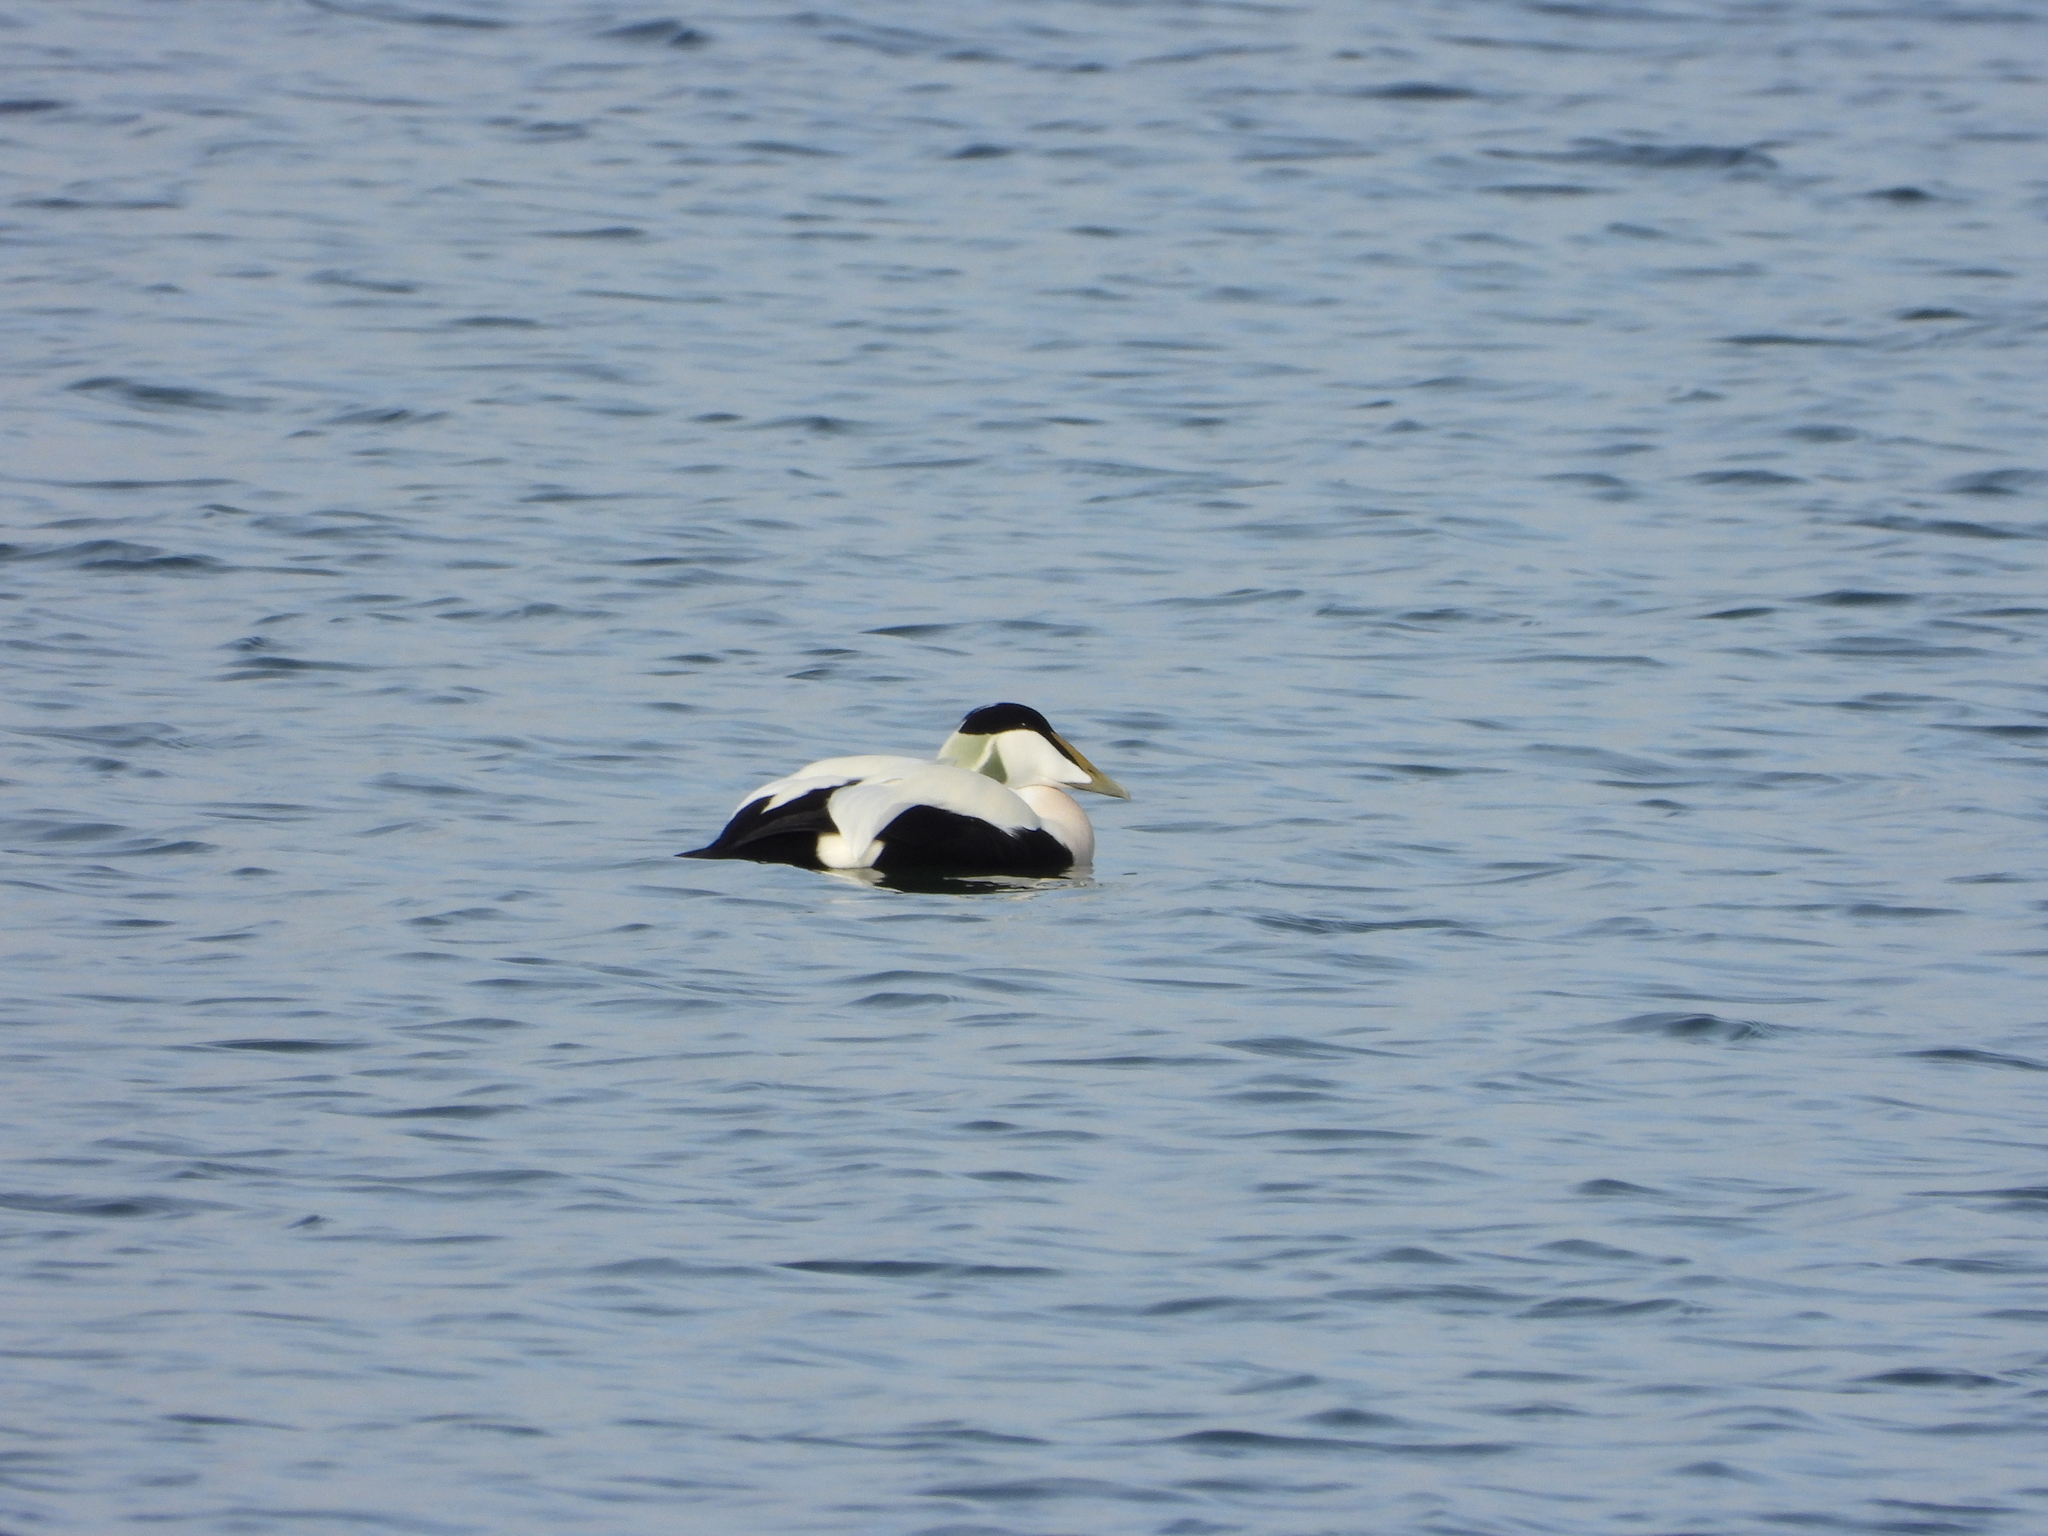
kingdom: Animalia
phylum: Chordata
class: Aves
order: Anseriformes
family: Anatidae
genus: Somateria
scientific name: Somateria mollissima
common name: Common eider
